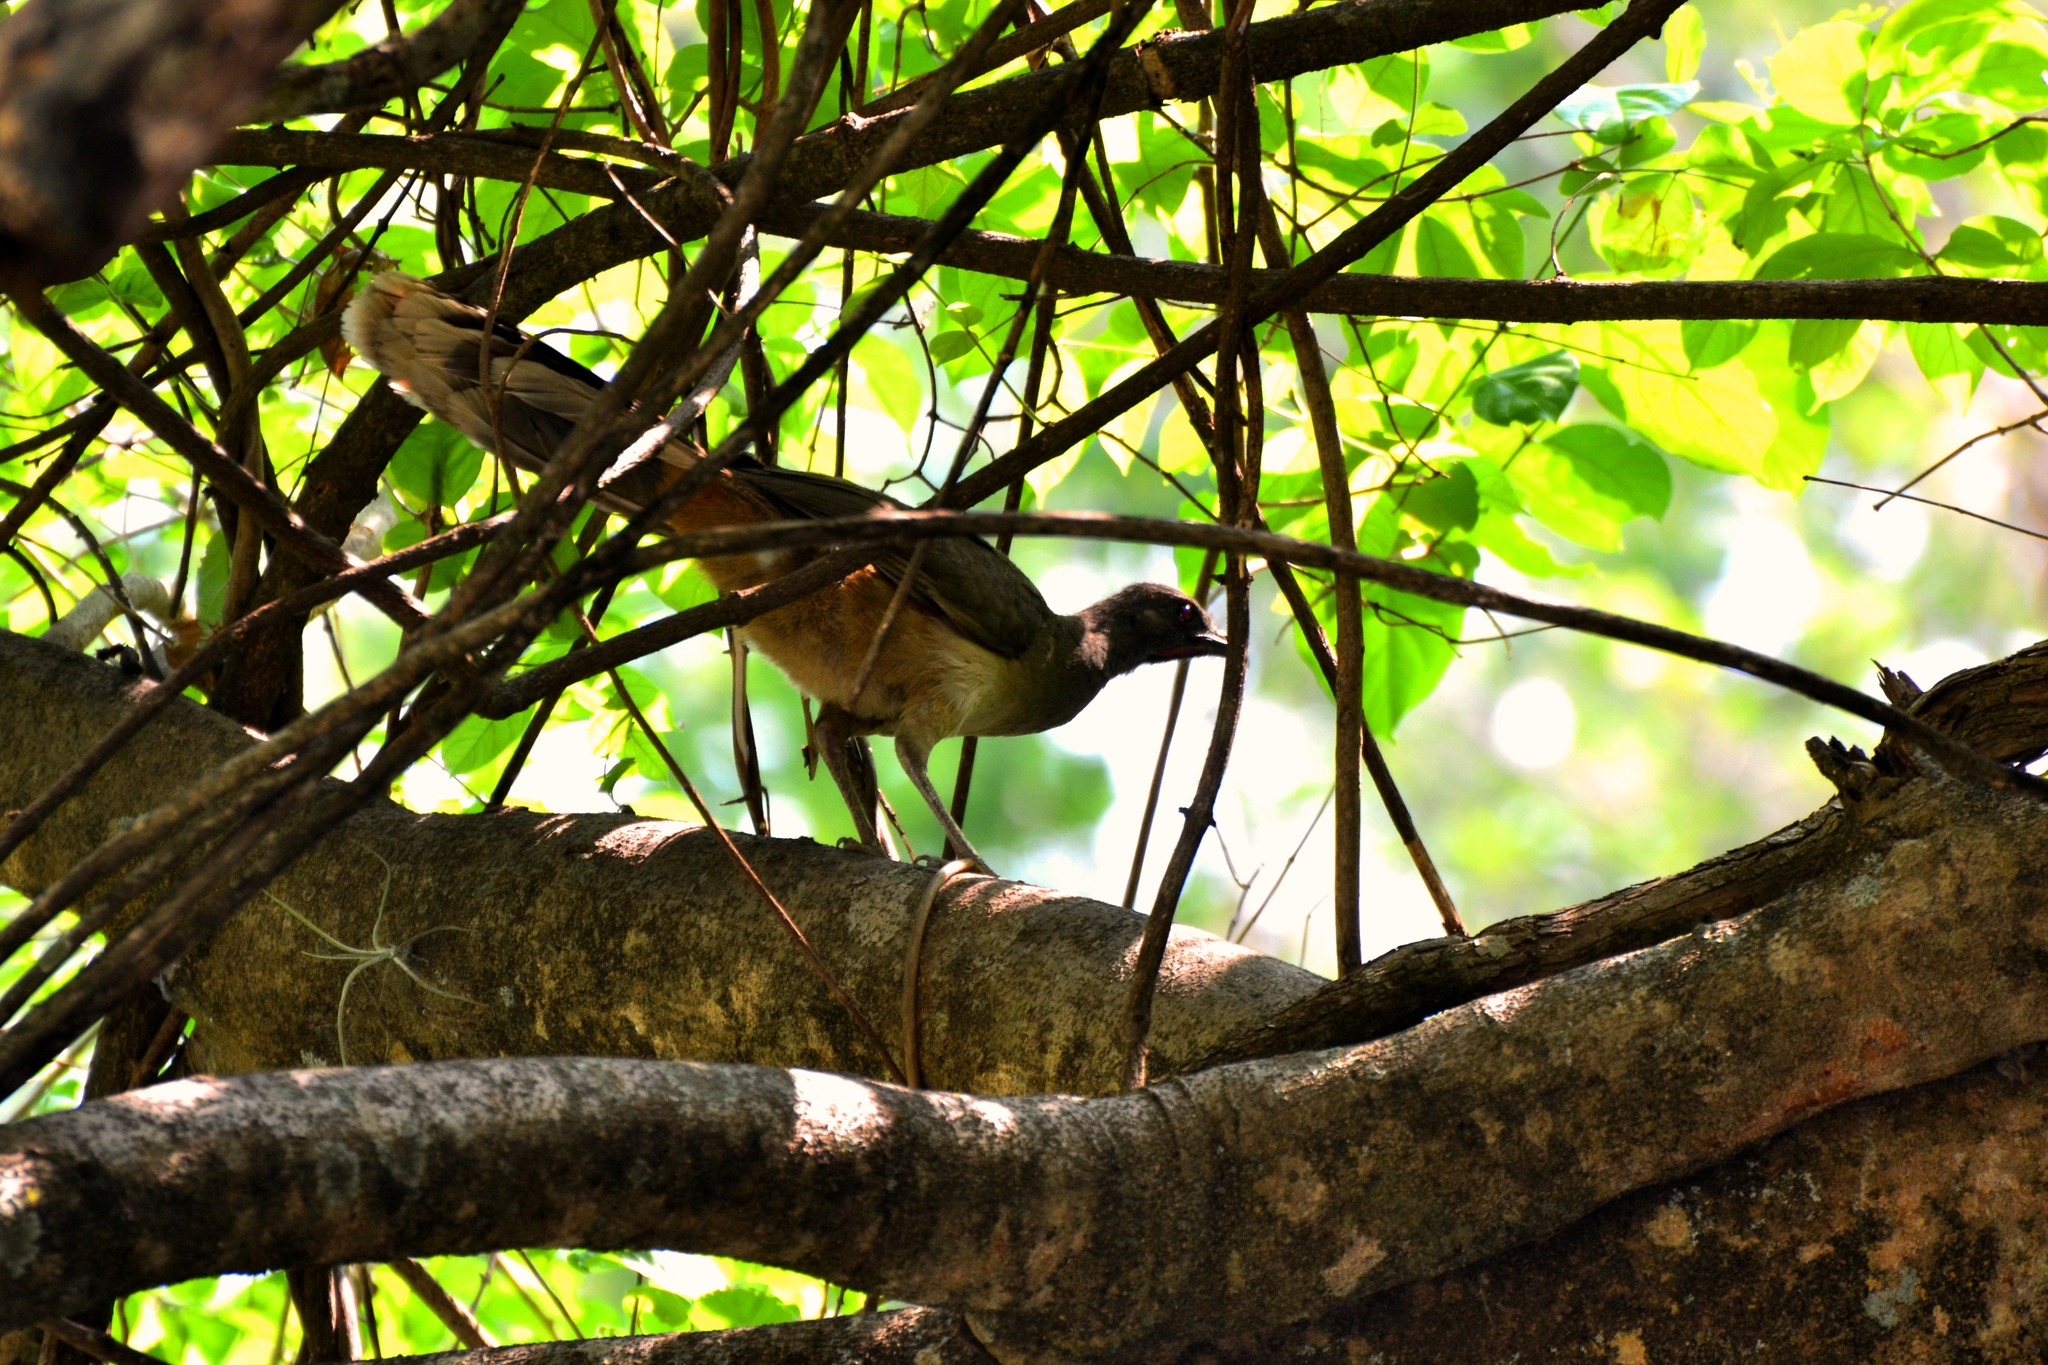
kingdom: Animalia
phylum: Chordata
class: Aves
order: Galliformes
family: Cracidae
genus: Ortalis
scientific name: Ortalis vetula
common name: Plain chachalaca
